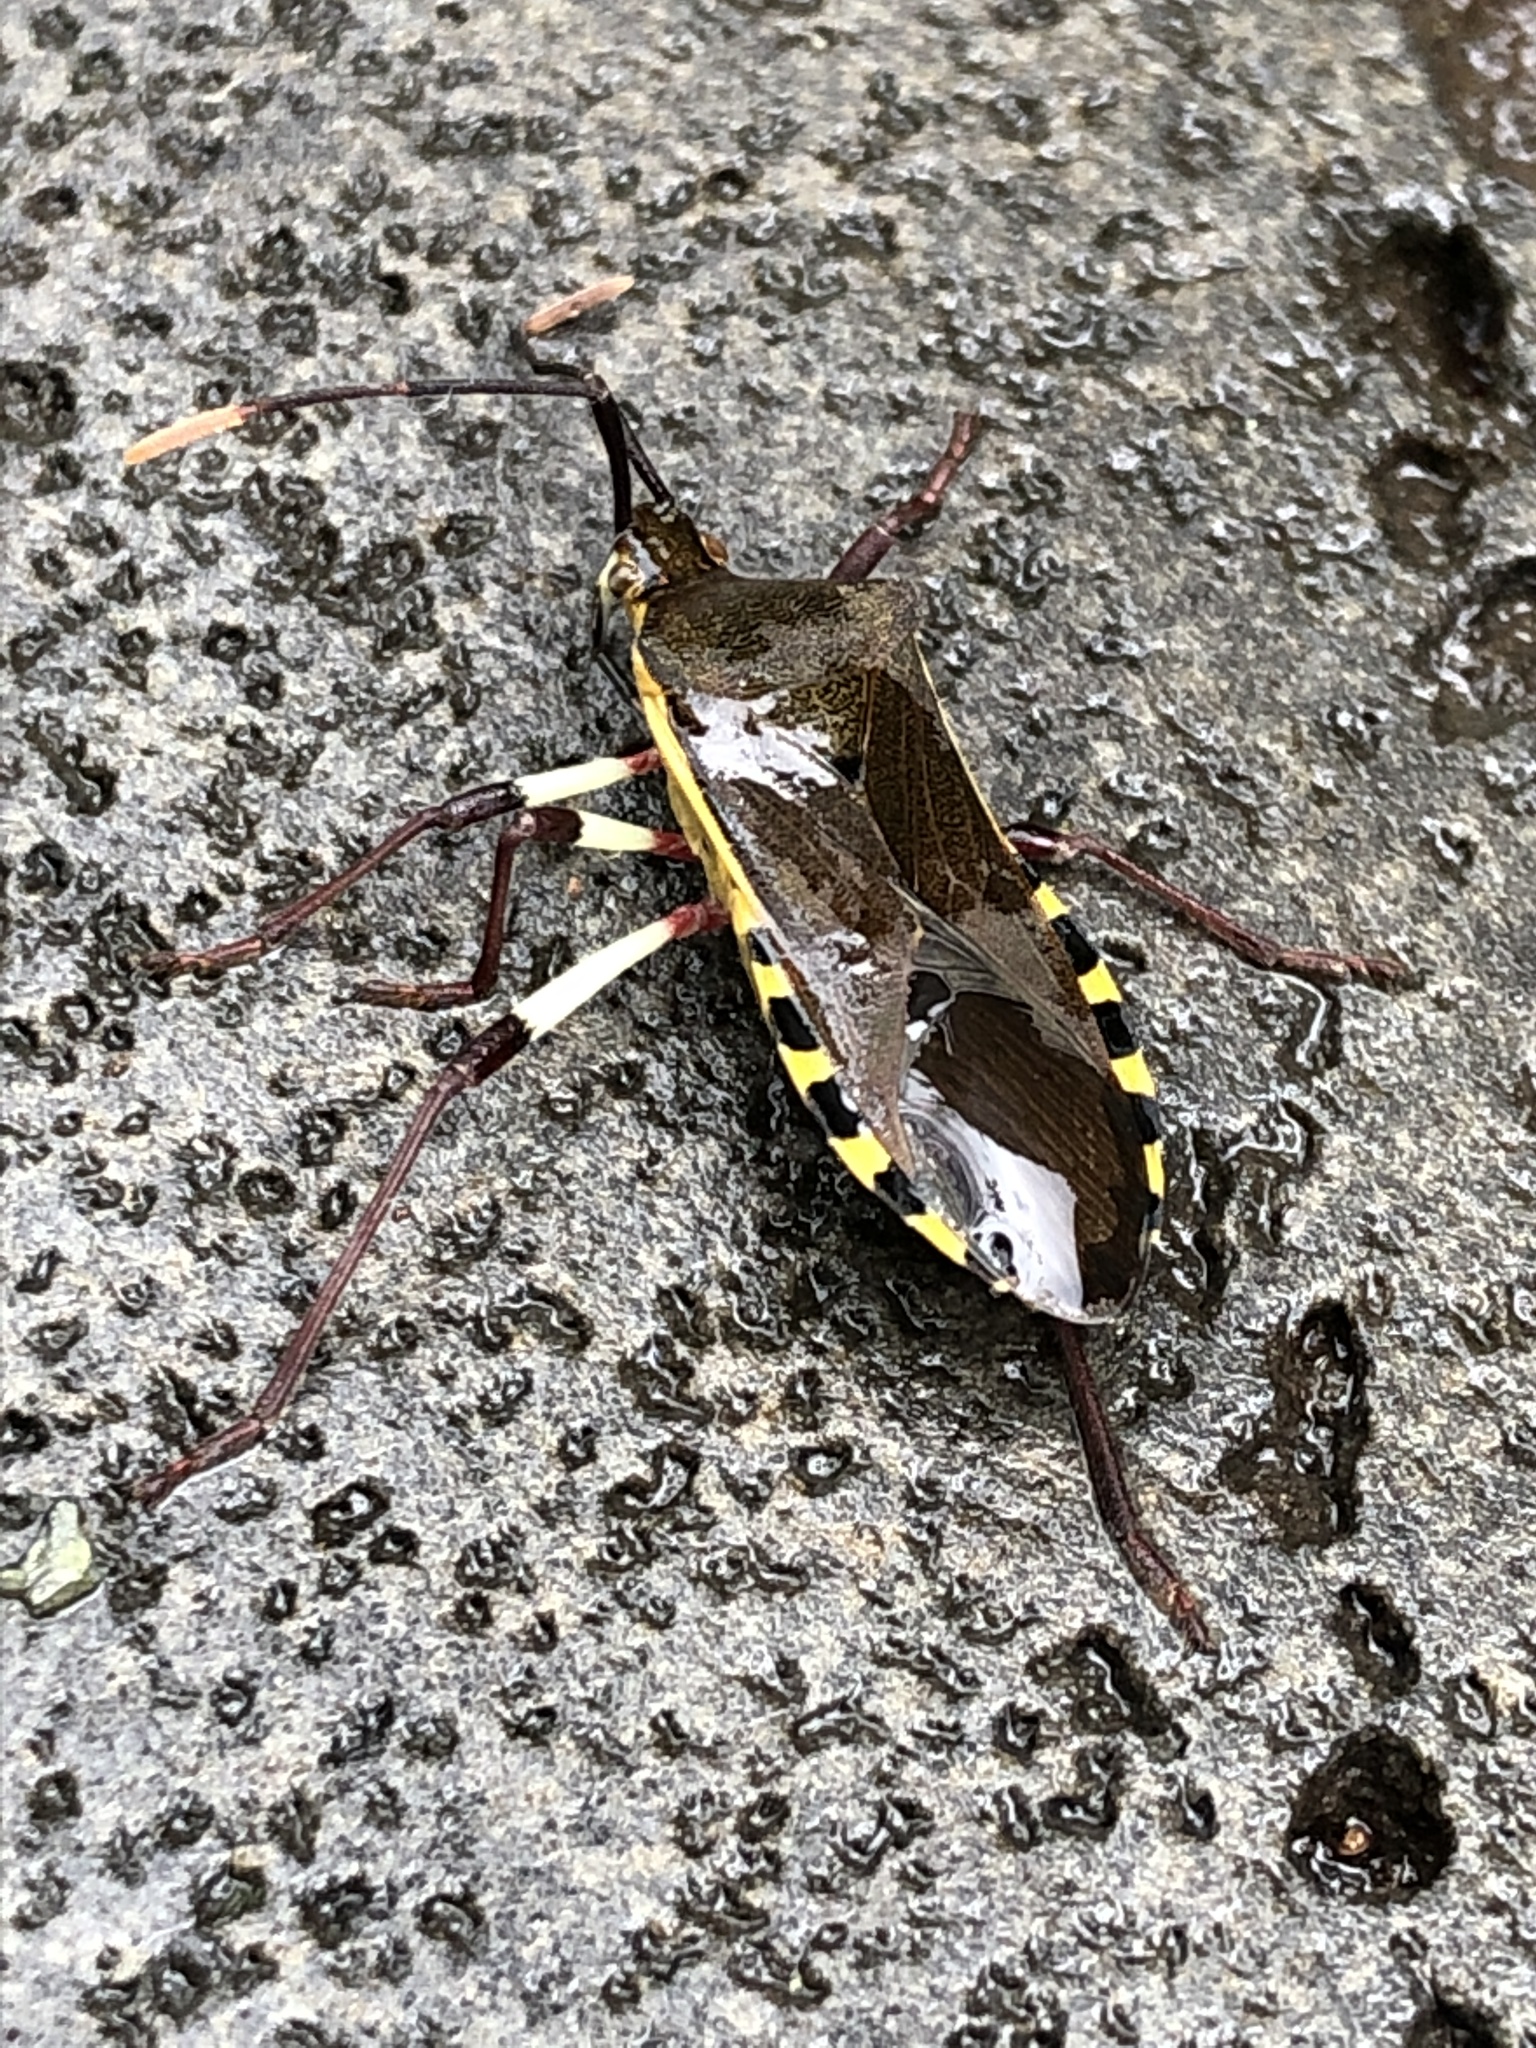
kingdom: Animalia
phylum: Arthropoda
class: Insecta
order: Hemiptera
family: Coreidae
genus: Plinachtus
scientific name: Plinachtus bicoloripes
